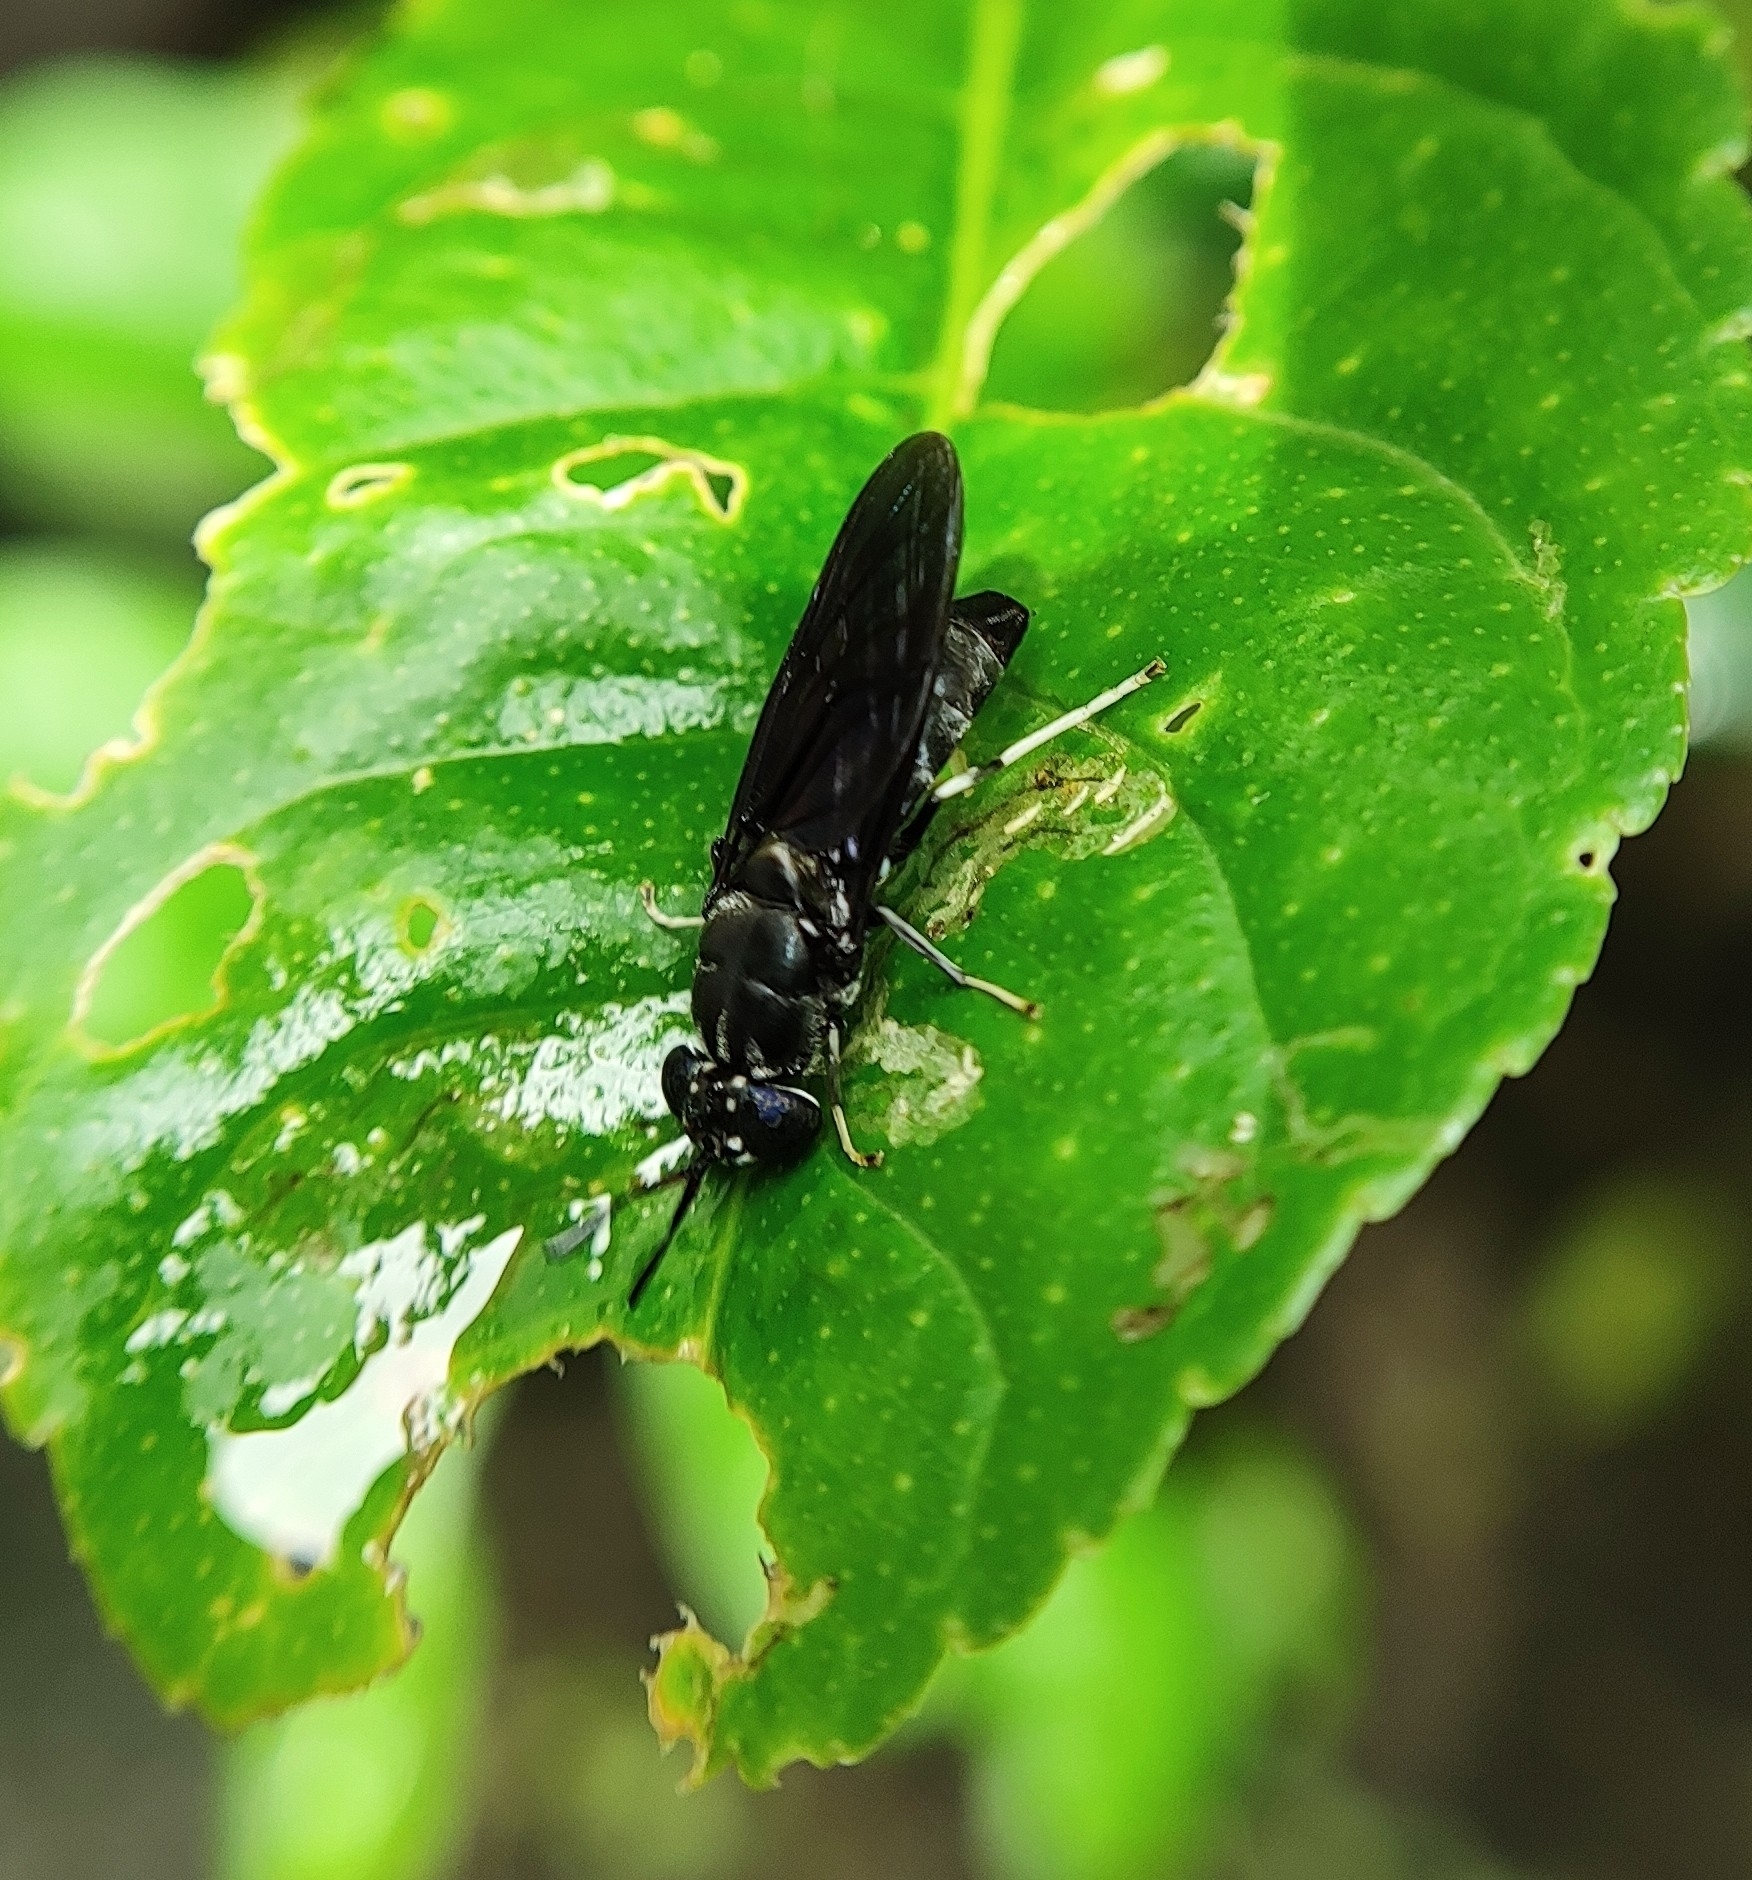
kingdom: Animalia
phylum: Arthropoda
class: Insecta
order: Diptera
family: Stratiomyidae
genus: Hermetia
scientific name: Hermetia illucens
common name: Black soldier fly
